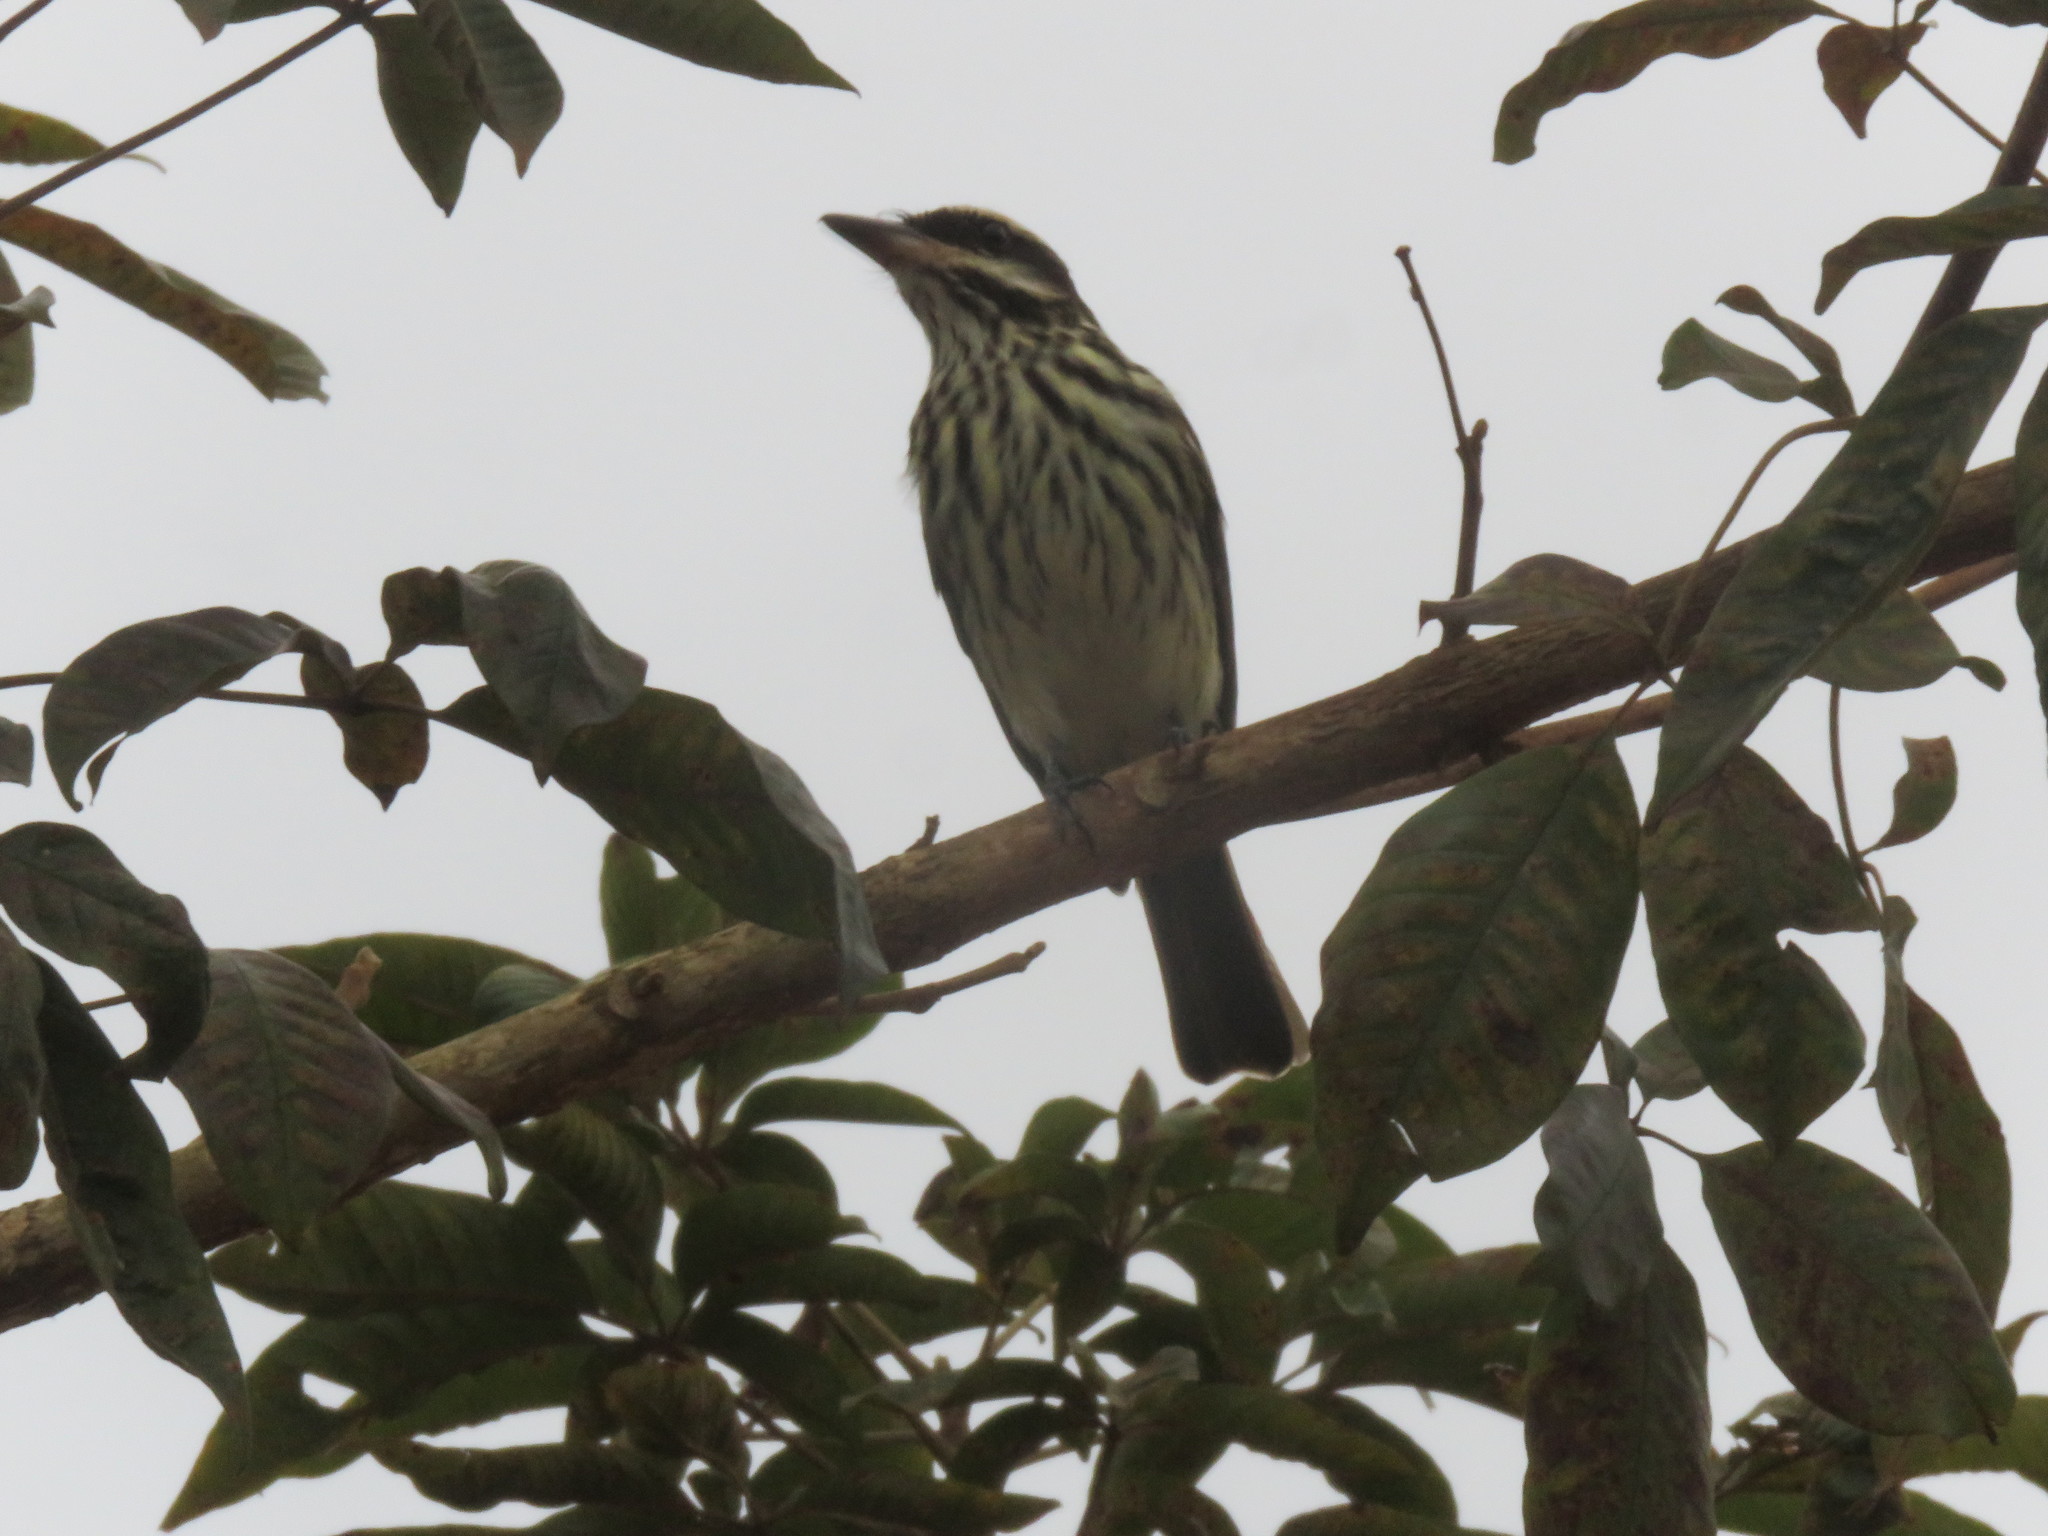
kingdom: Animalia
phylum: Chordata
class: Aves
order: Passeriformes
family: Tyrannidae
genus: Myiodynastes
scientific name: Myiodynastes maculatus
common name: Streaked flycatcher
